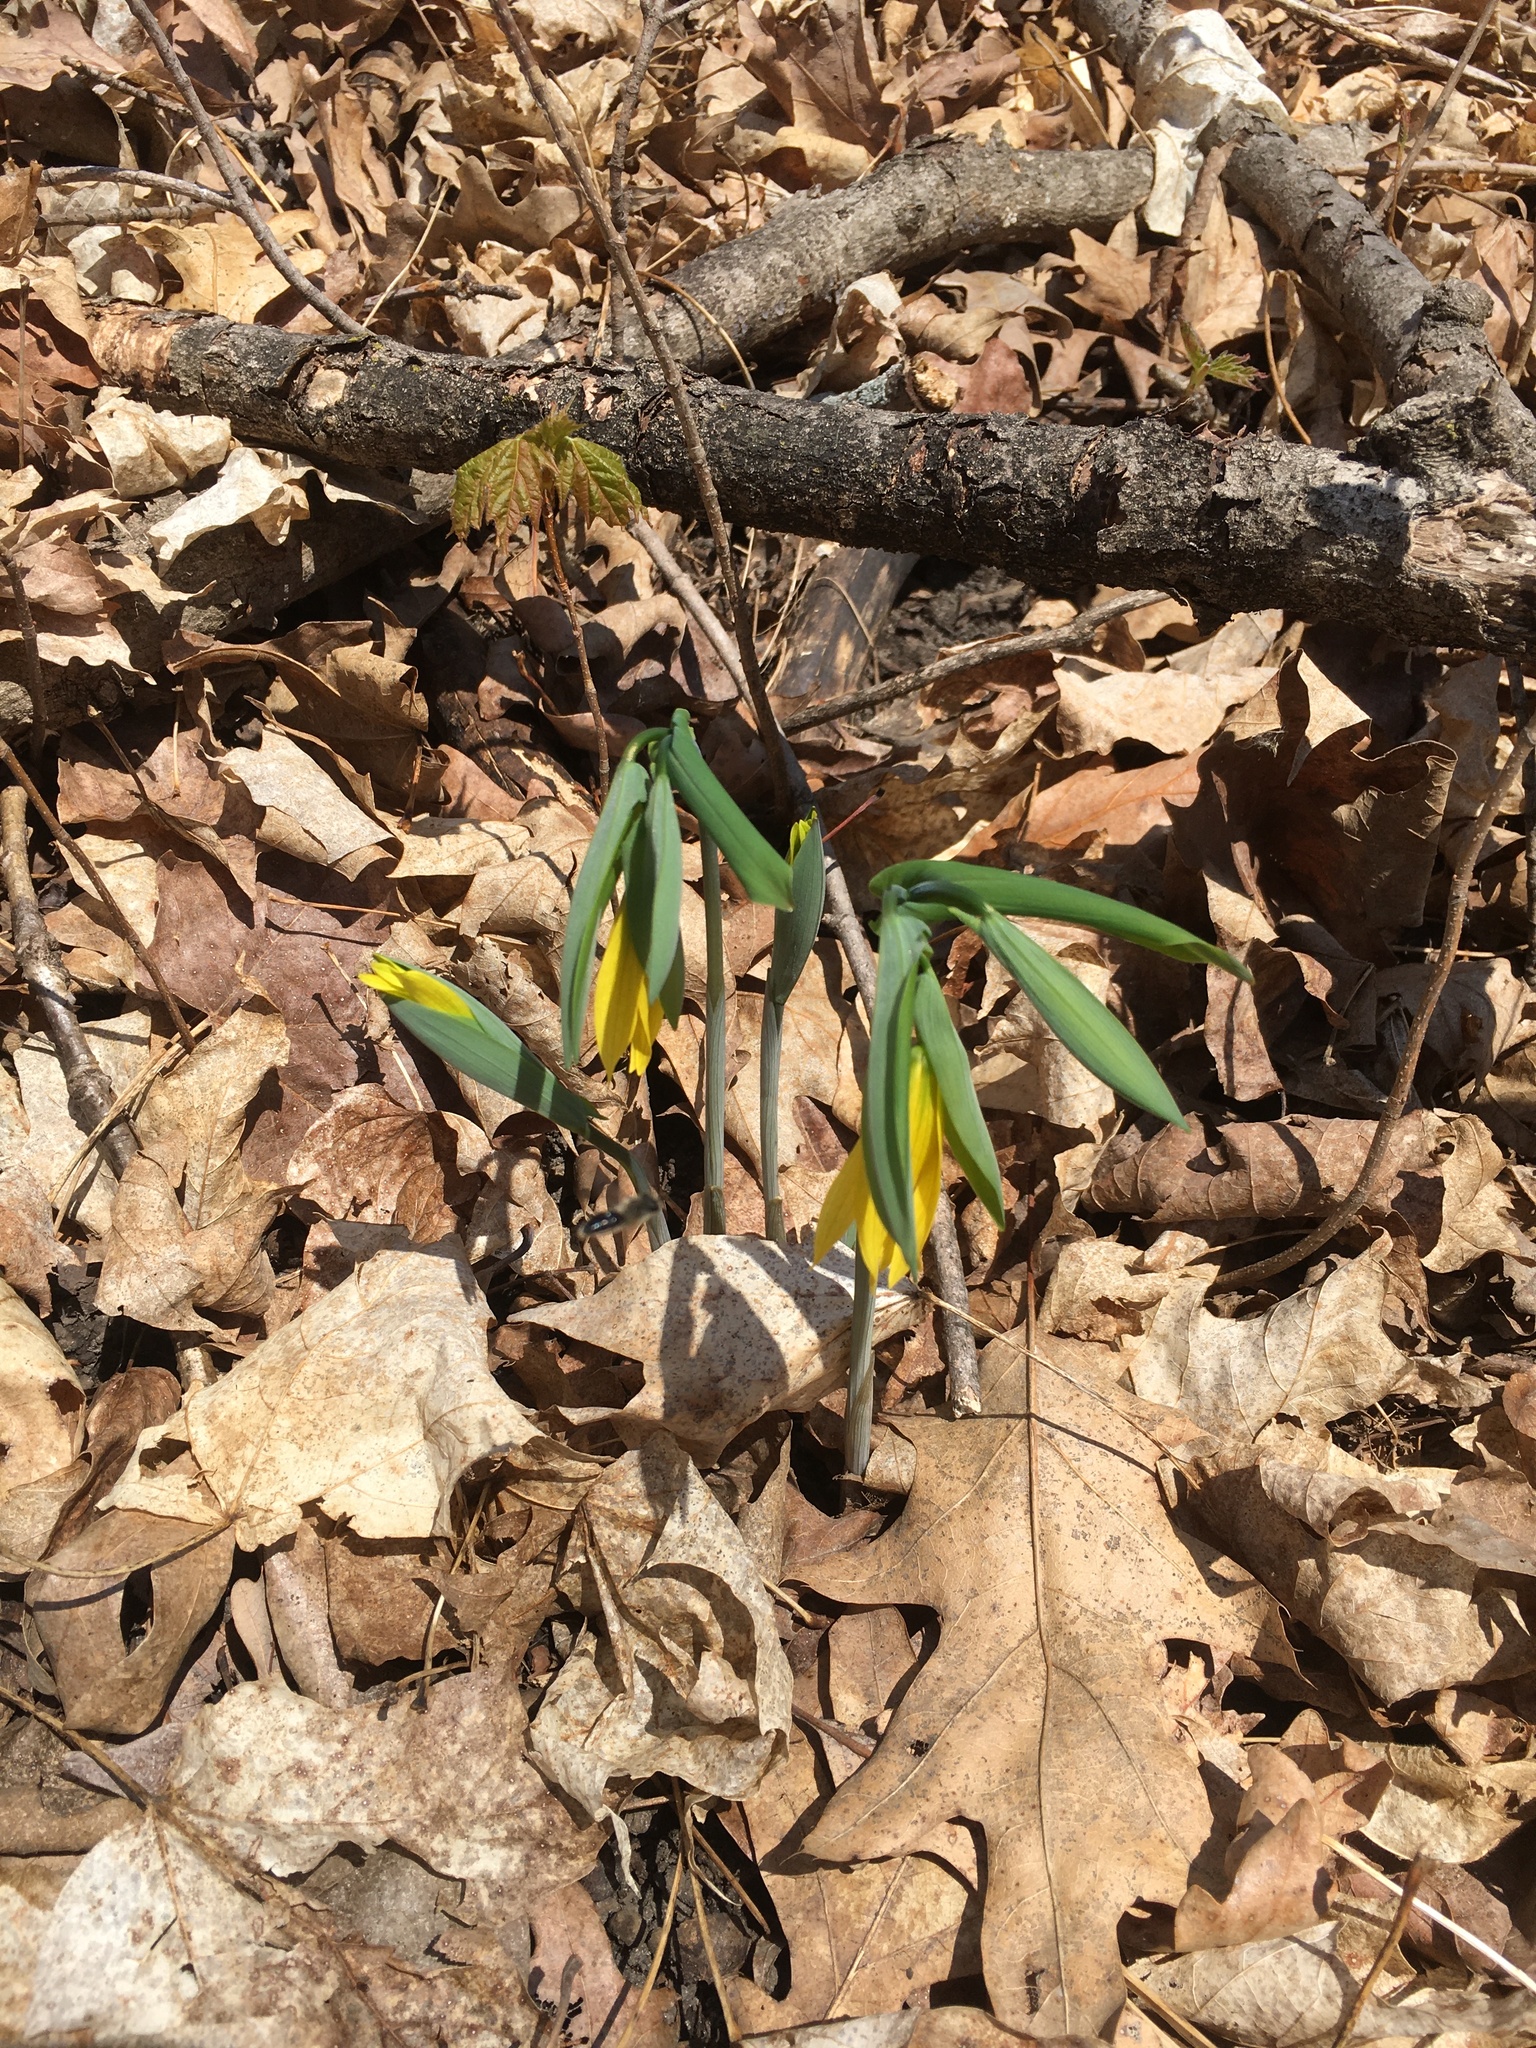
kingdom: Plantae
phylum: Tracheophyta
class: Liliopsida
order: Liliales
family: Colchicaceae
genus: Uvularia
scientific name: Uvularia grandiflora
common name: Bellwort
